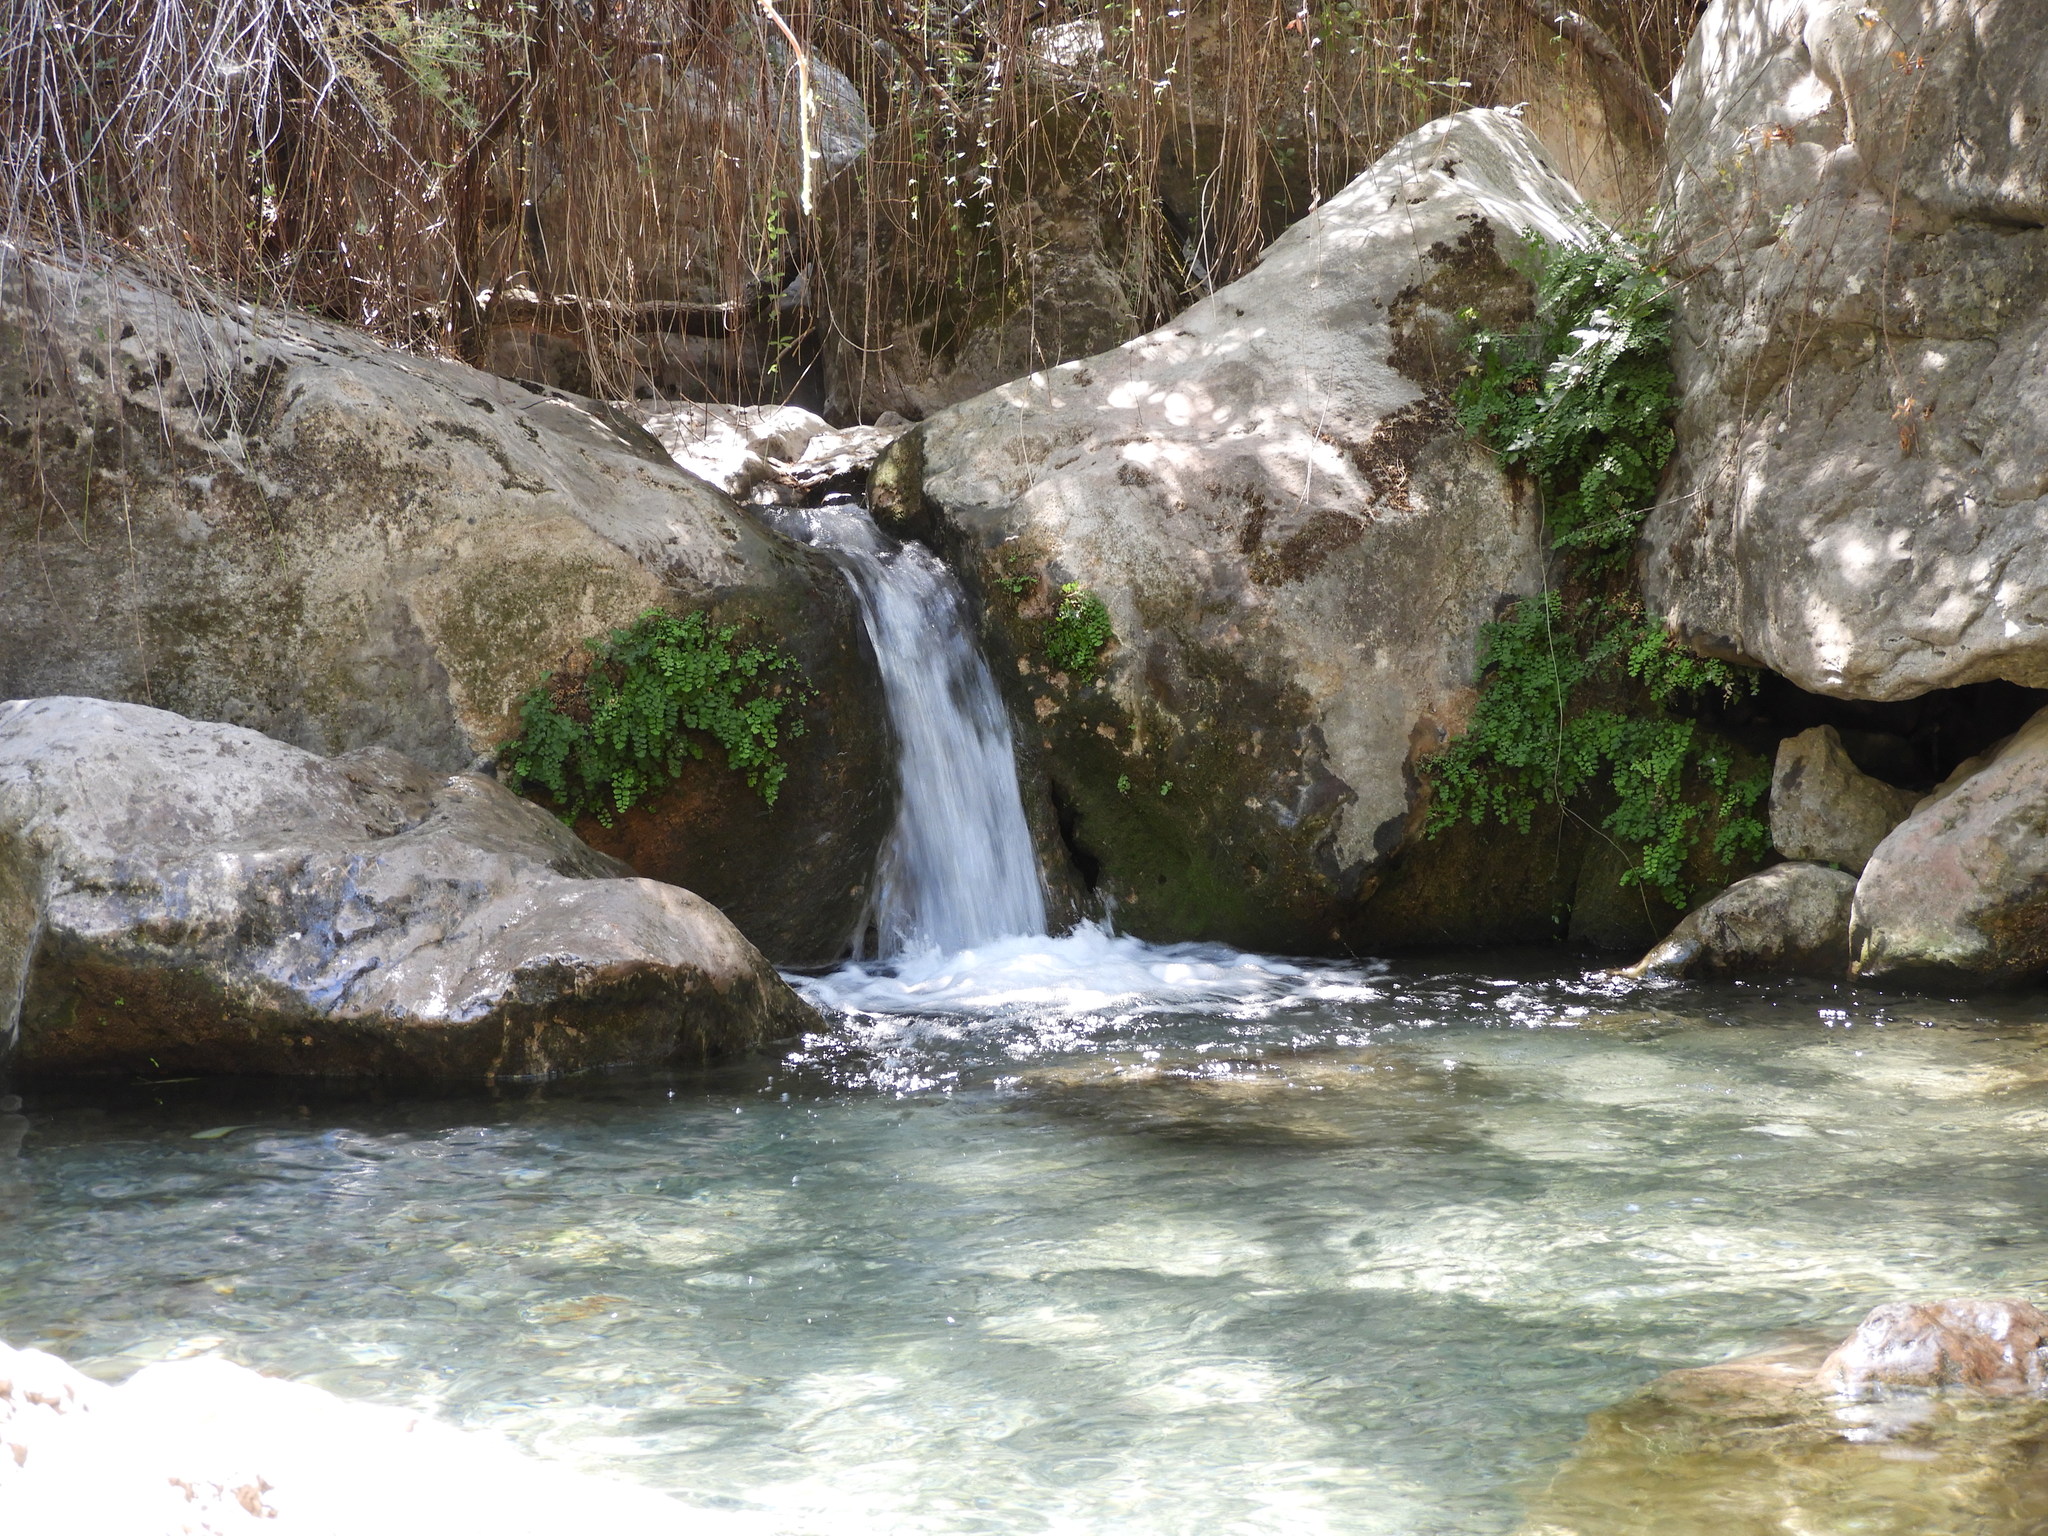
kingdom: Plantae
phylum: Tracheophyta
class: Polypodiopsida
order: Polypodiales
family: Pteridaceae
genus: Adiantum
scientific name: Adiantum capillus-veneris
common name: Maidenhair fern
